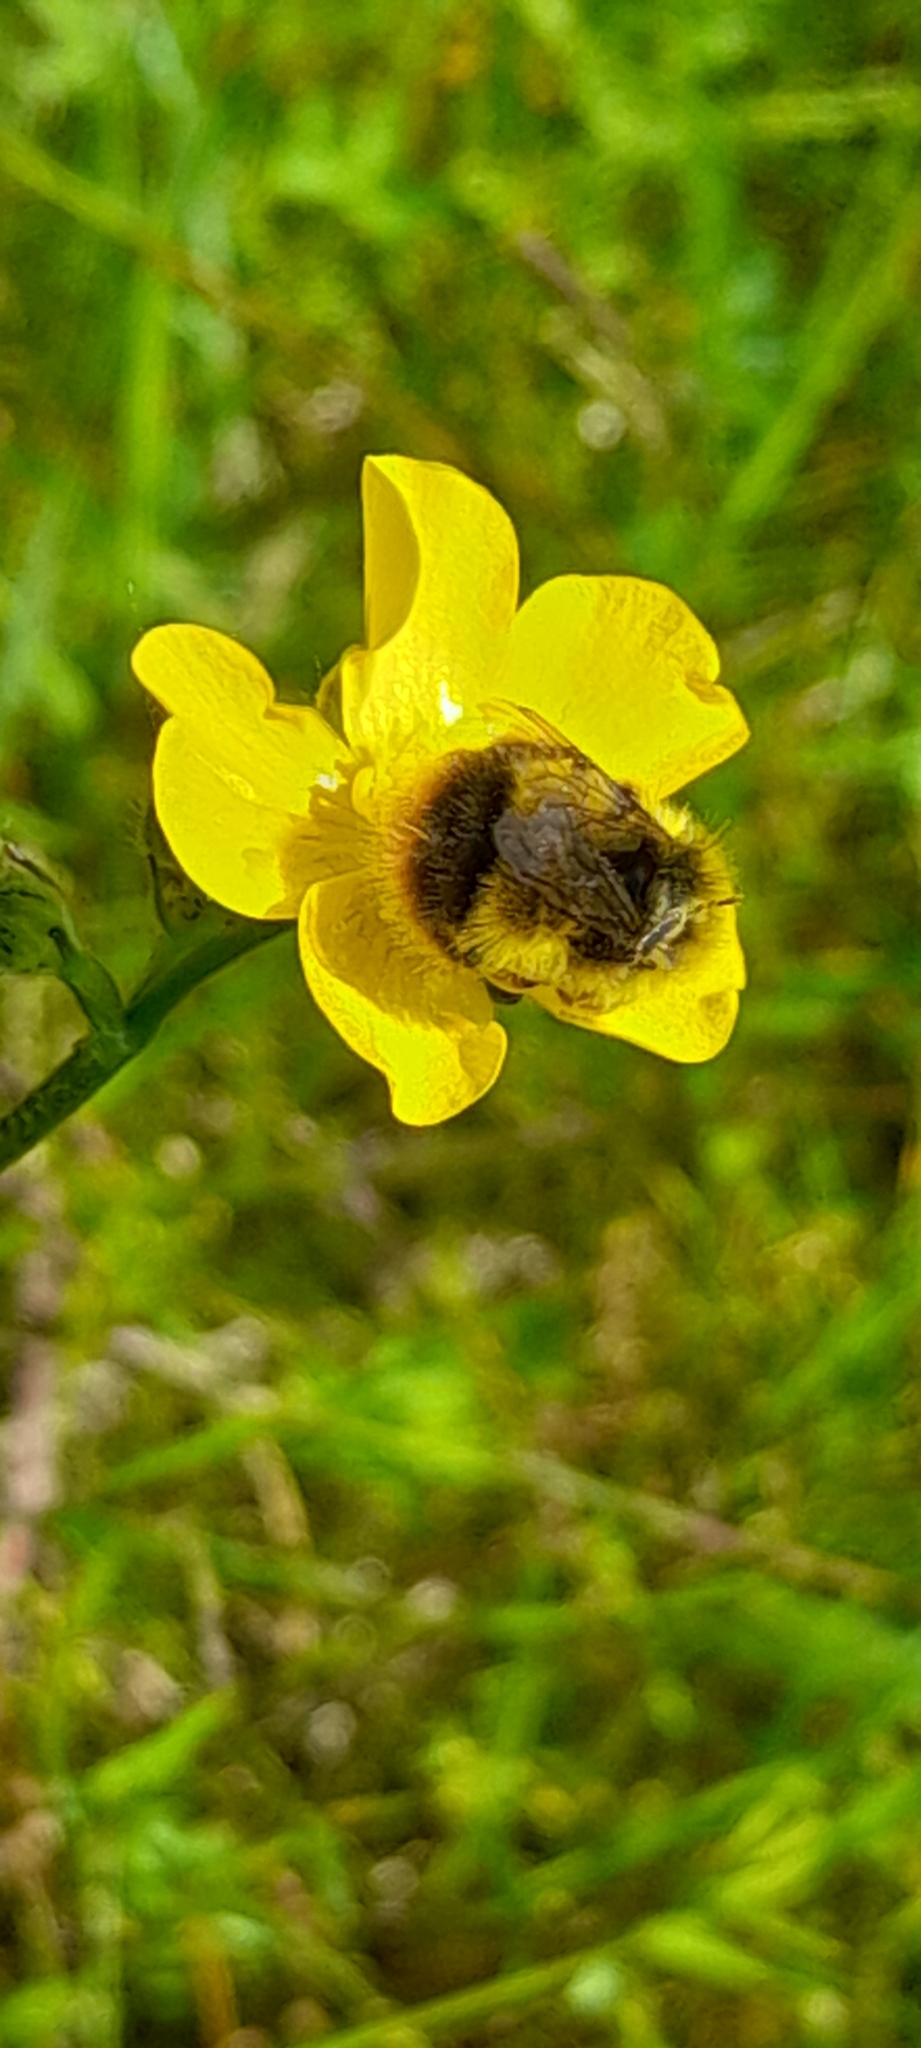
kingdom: Animalia
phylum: Arthropoda
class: Insecta
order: Hymenoptera
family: Apidae
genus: Bombus
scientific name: Bombus pratorum
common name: Early humble-bee
